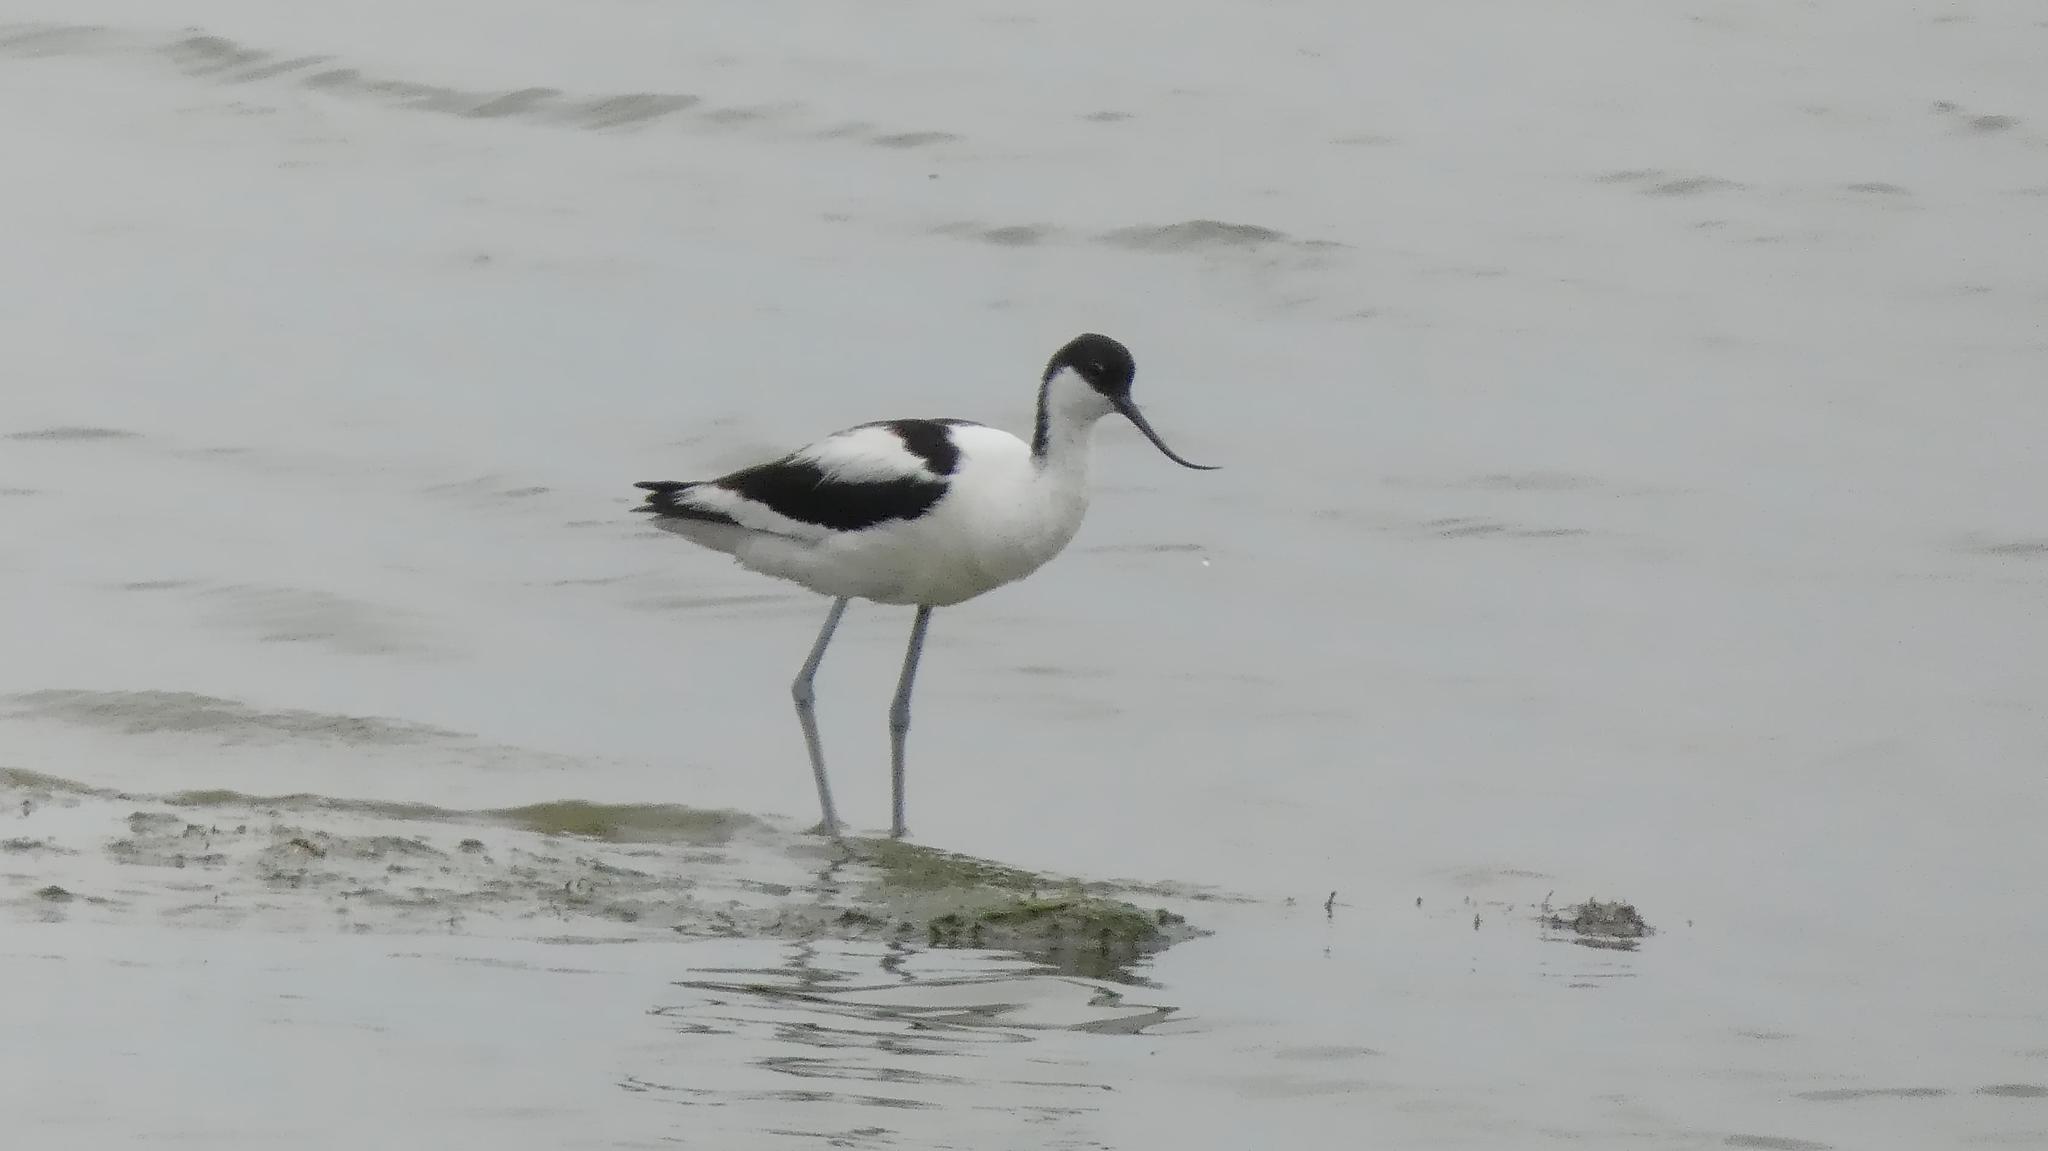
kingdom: Animalia
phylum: Chordata
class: Aves
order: Charadriiformes
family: Recurvirostridae
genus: Recurvirostra
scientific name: Recurvirostra avosetta
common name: Pied avocet
